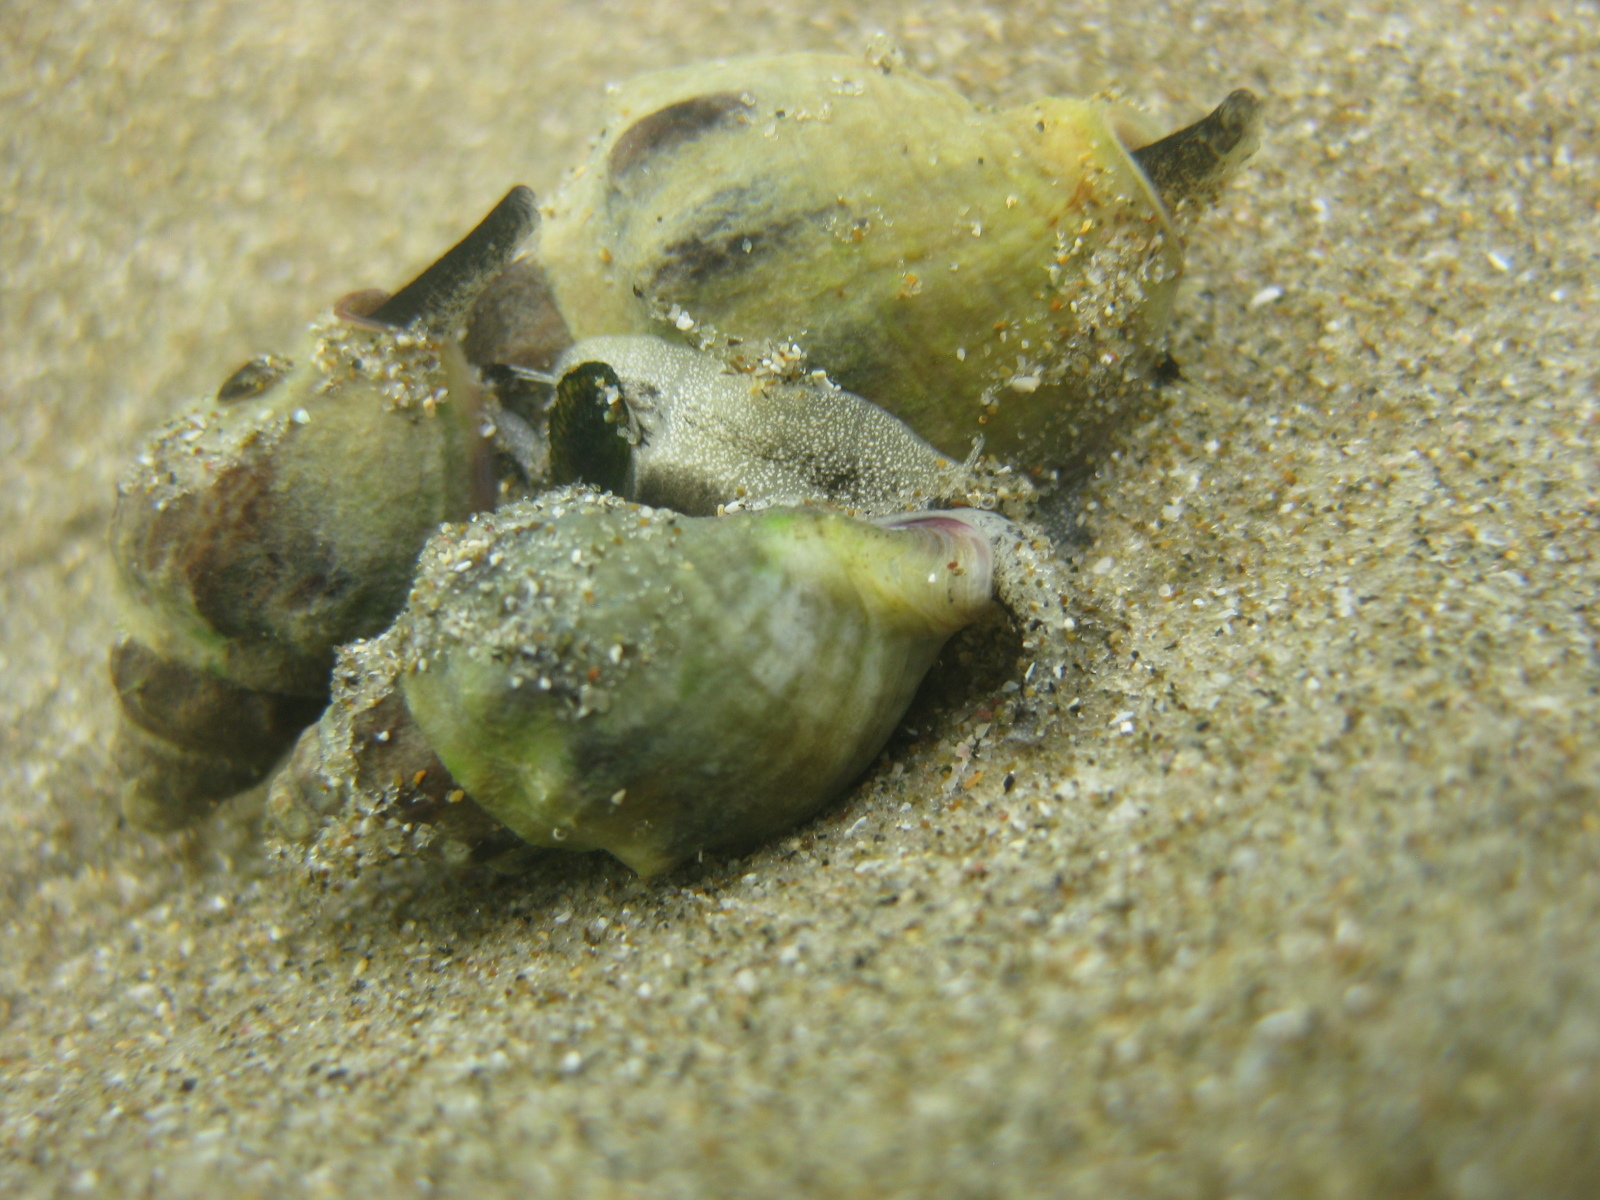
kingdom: Animalia
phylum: Mollusca
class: Gastropoda
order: Neogastropoda
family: Cominellidae
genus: Cominella
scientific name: Cominella glandiformis
